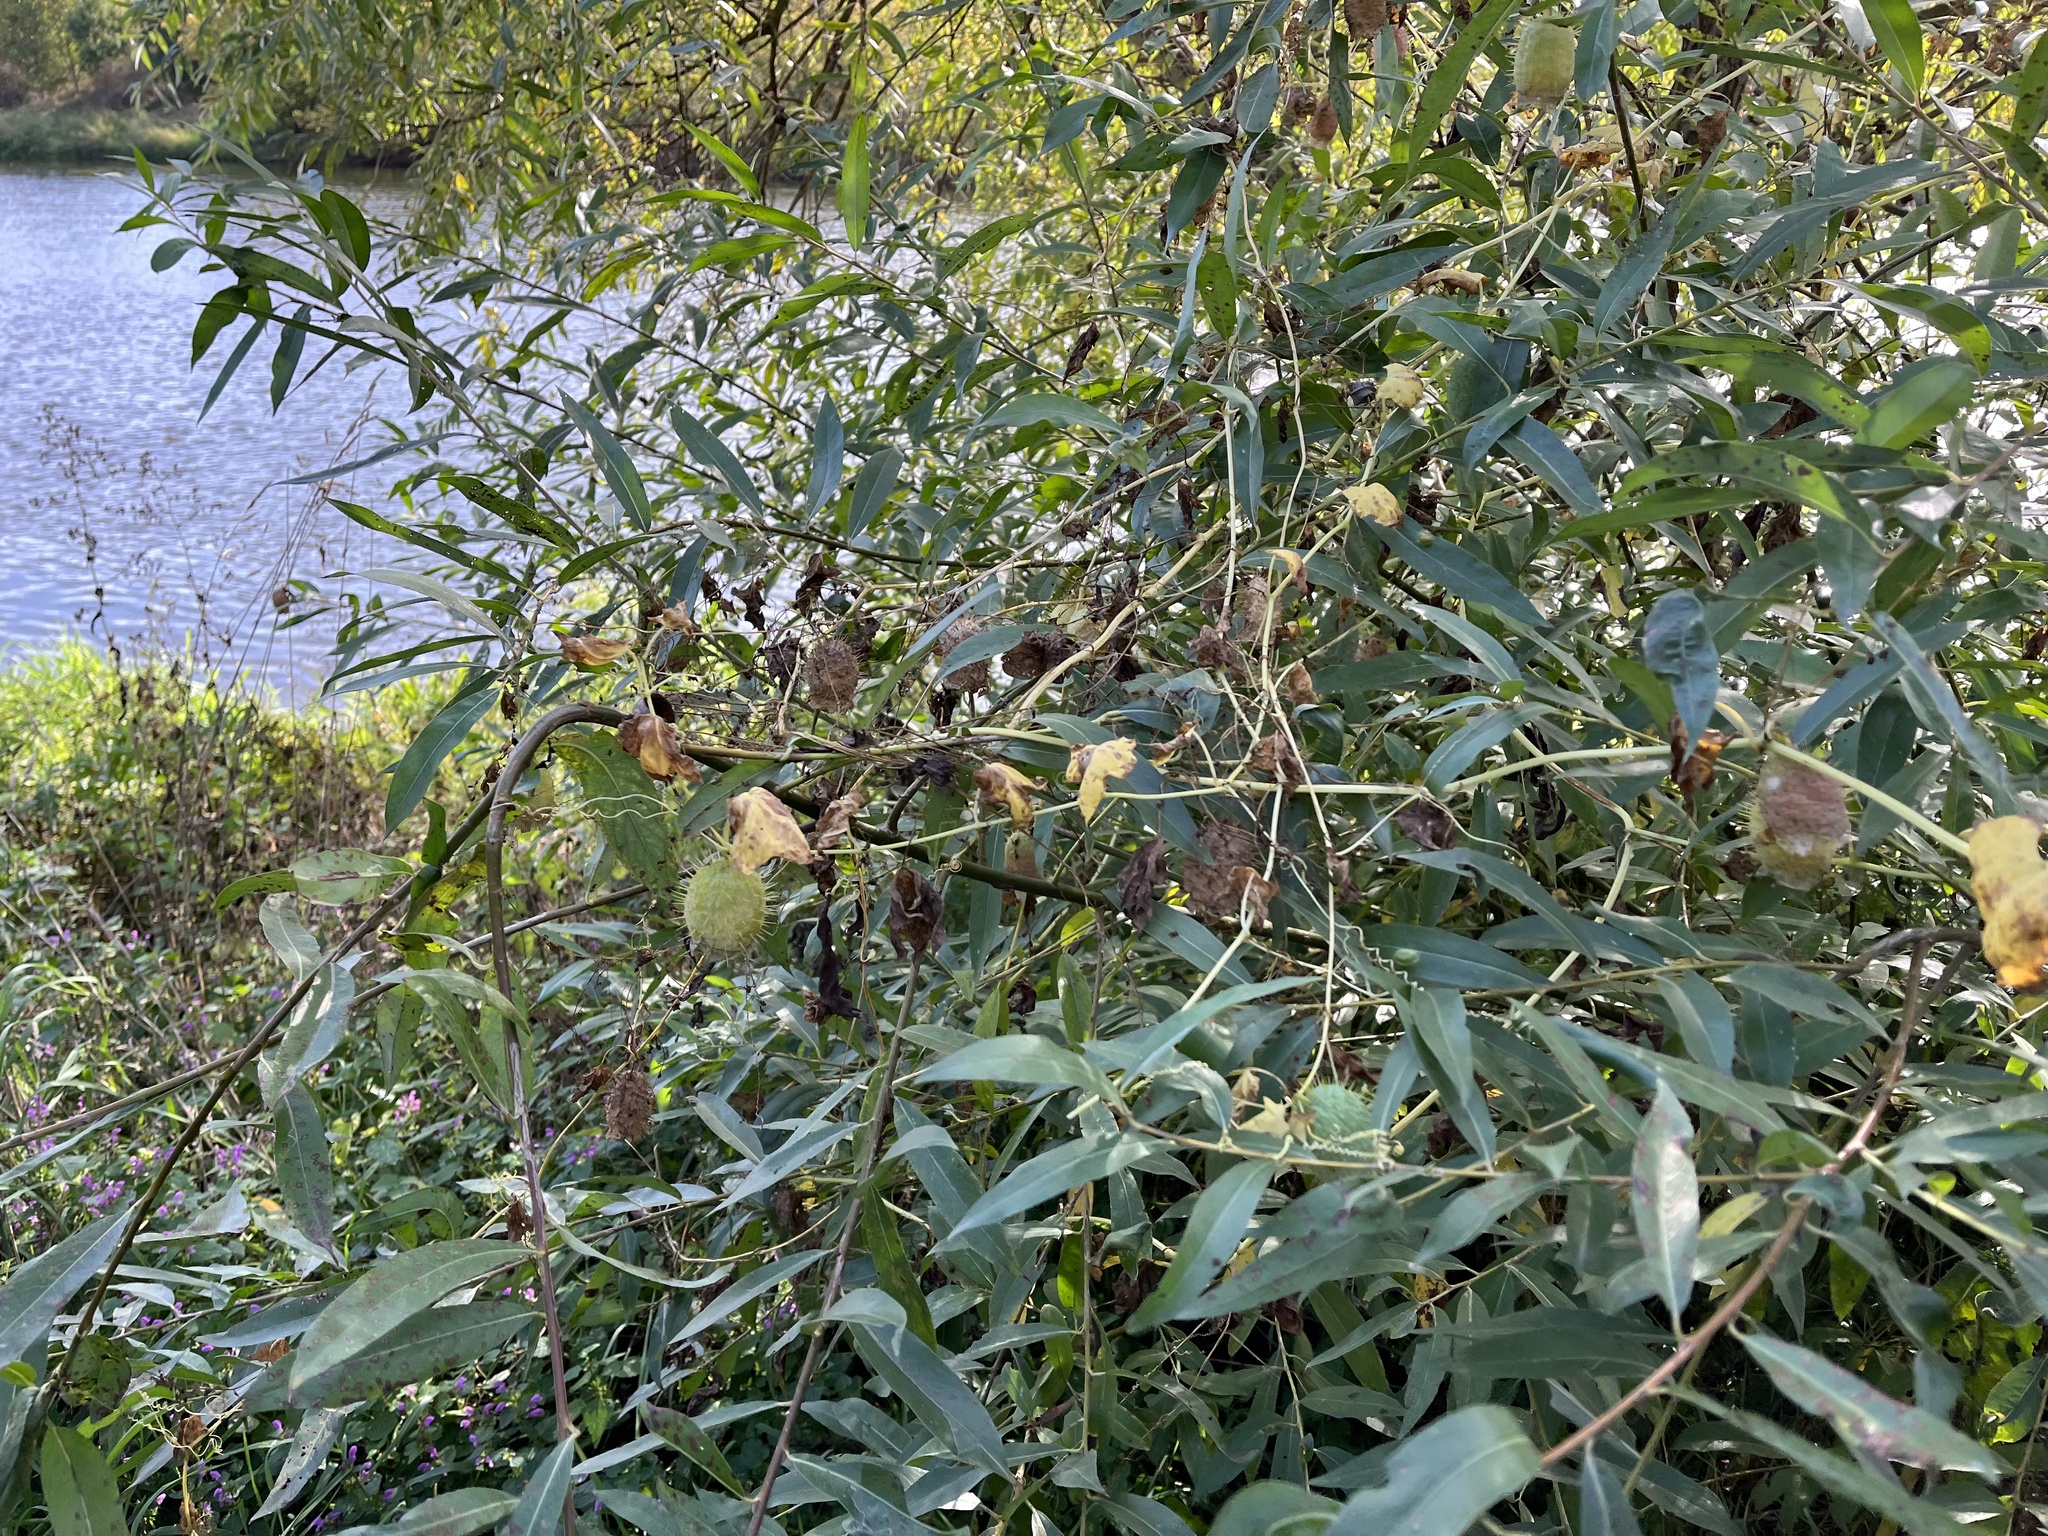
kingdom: Plantae
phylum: Tracheophyta
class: Magnoliopsida
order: Cucurbitales
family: Cucurbitaceae
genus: Echinocystis
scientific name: Echinocystis lobata
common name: Wild cucumber
